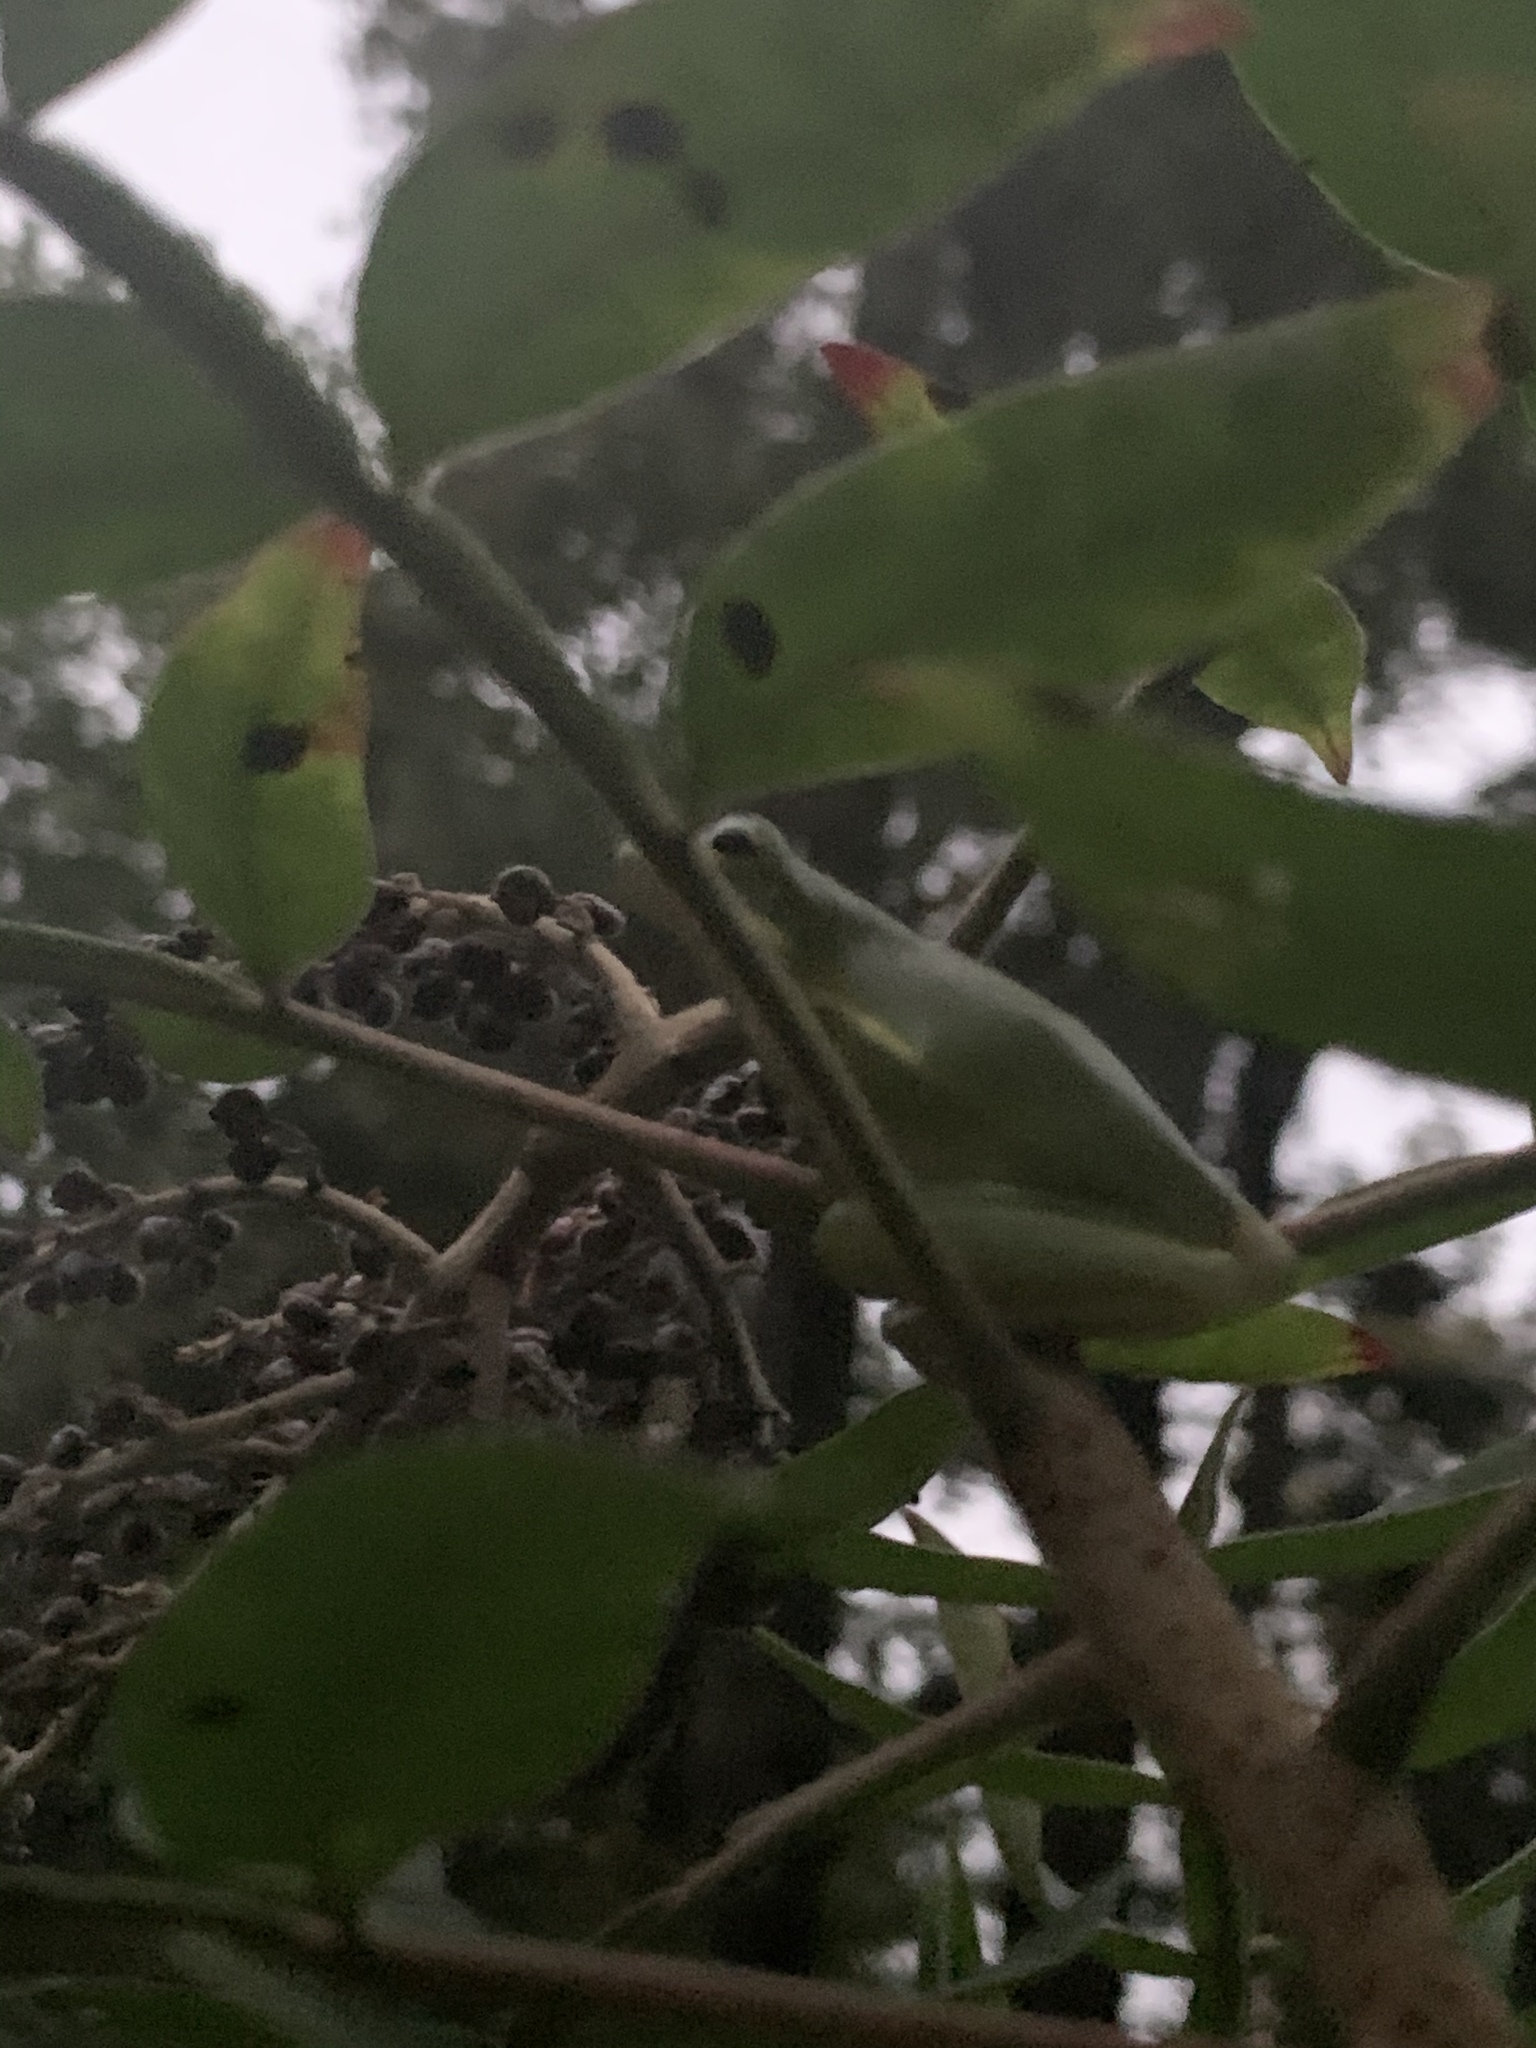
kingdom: Animalia
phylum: Chordata
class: Amphibia
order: Anura
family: Hylidae
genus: Dryophytes
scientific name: Dryophytes cinereus
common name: Green treefrog
